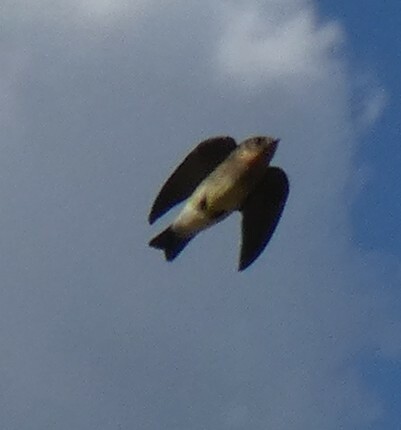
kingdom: Animalia
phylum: Chordata
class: Aves
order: Passeriformes
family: Hirundinidae
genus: Stelgidopteryx
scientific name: Stelgidopteryx ruficollis
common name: Southern rough-winged swallow
